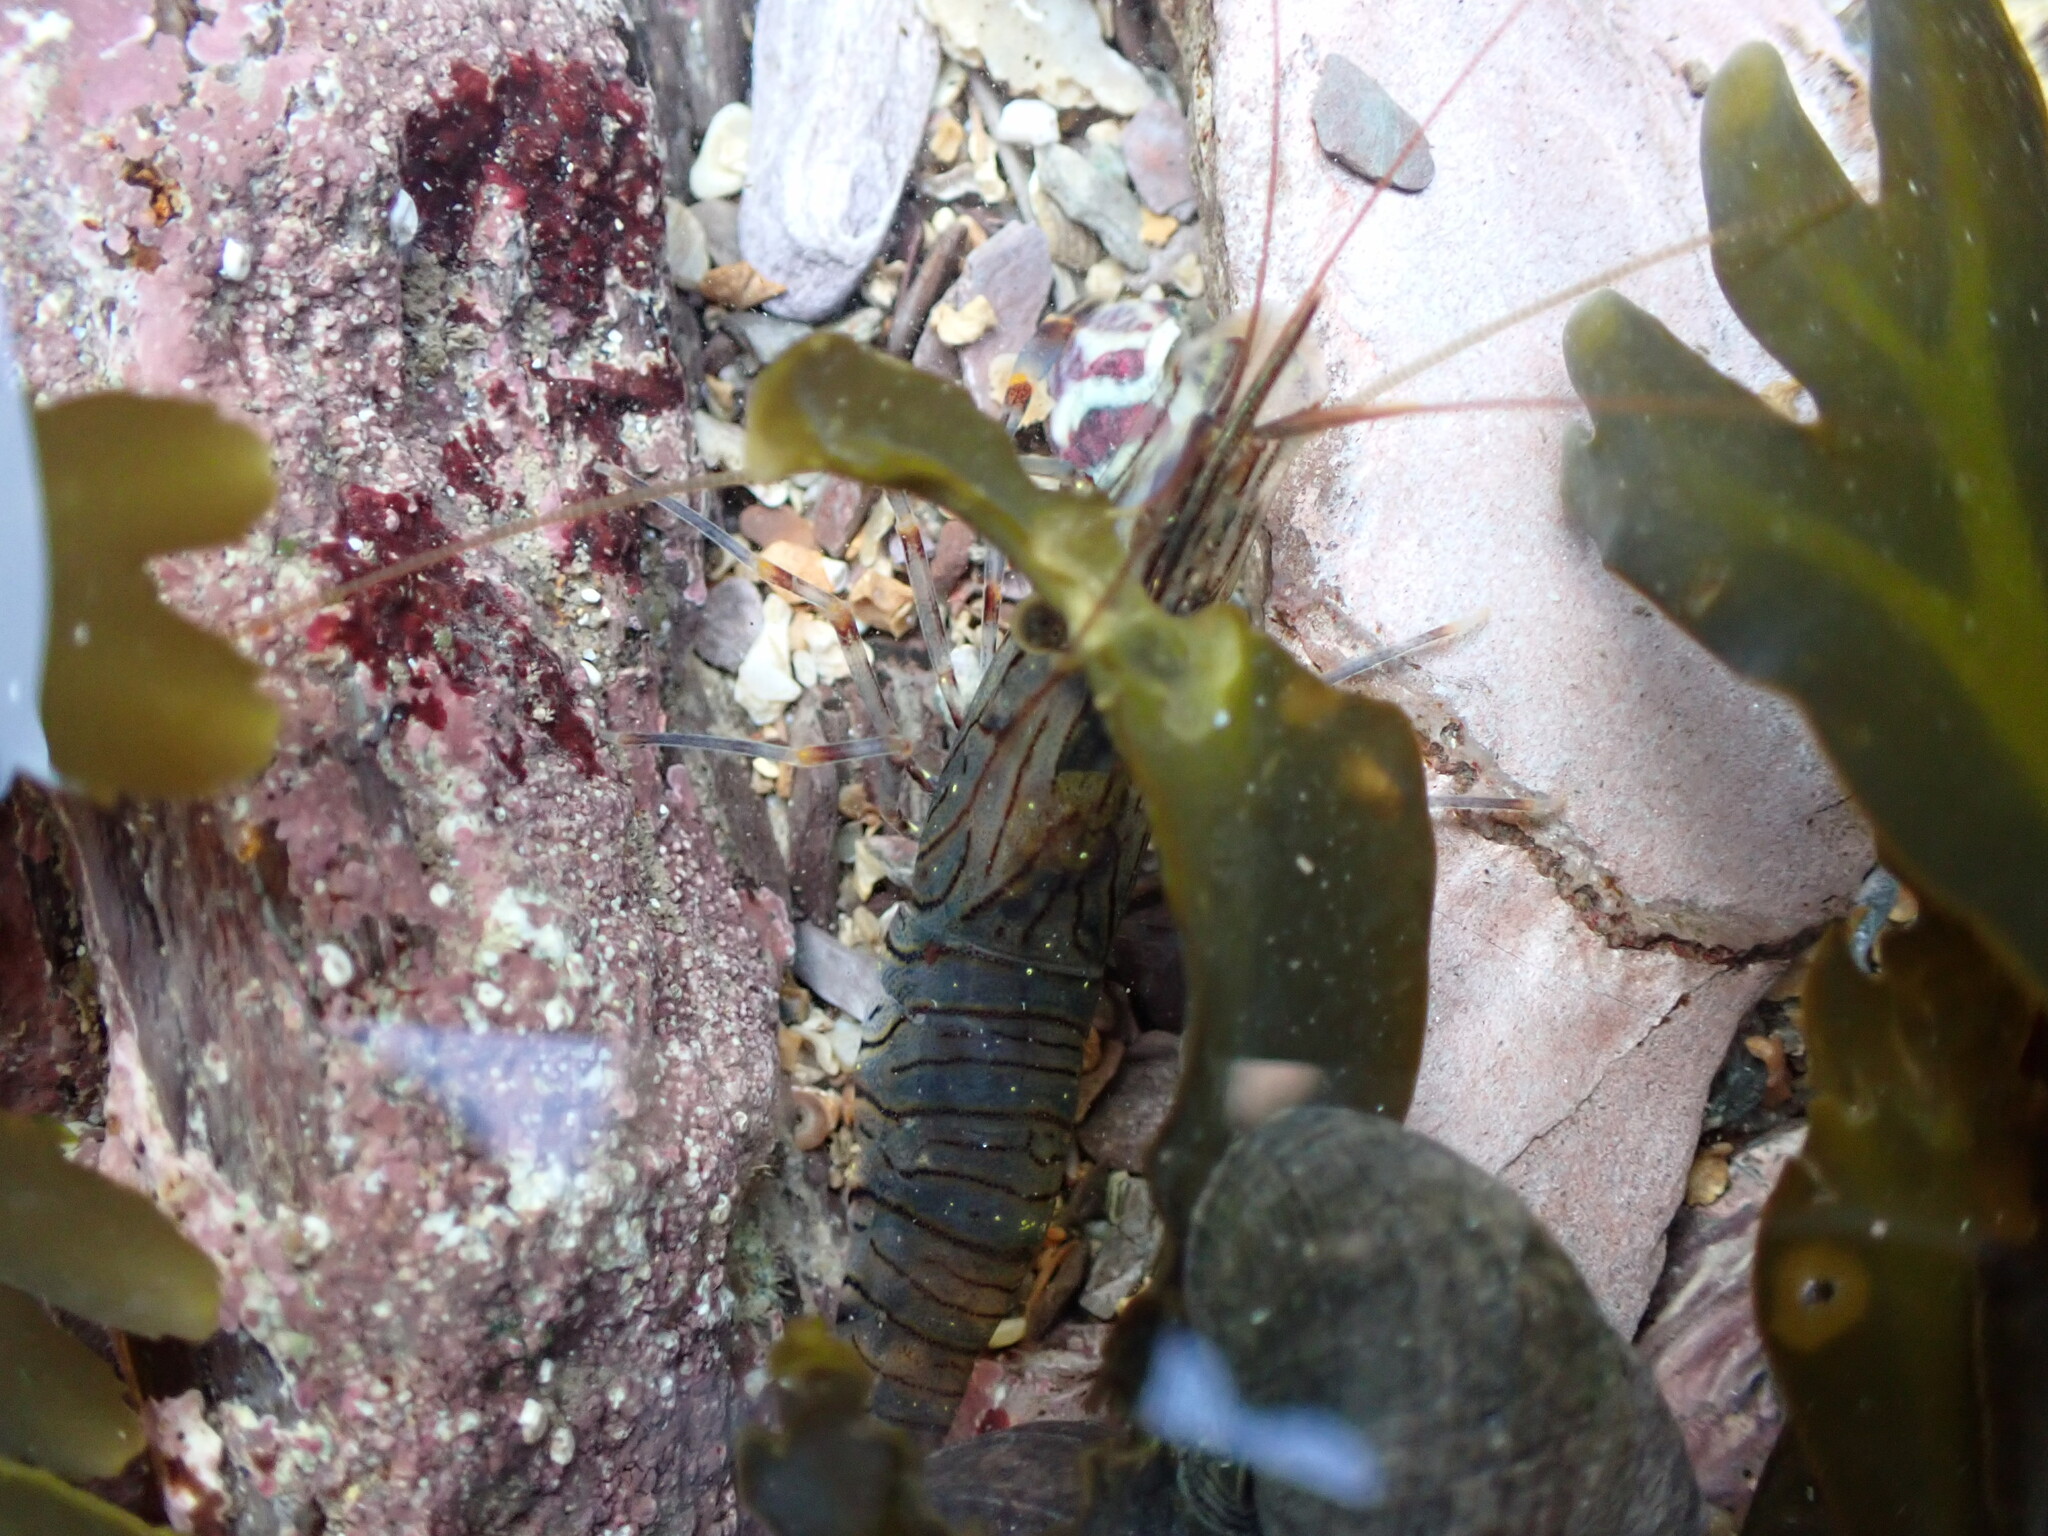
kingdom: Animalia
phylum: Arthropoda
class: Malacostraca
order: Decapoda
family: Palaemonidae
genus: Palaemon
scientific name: Palaemon serratus
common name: Common prawn
